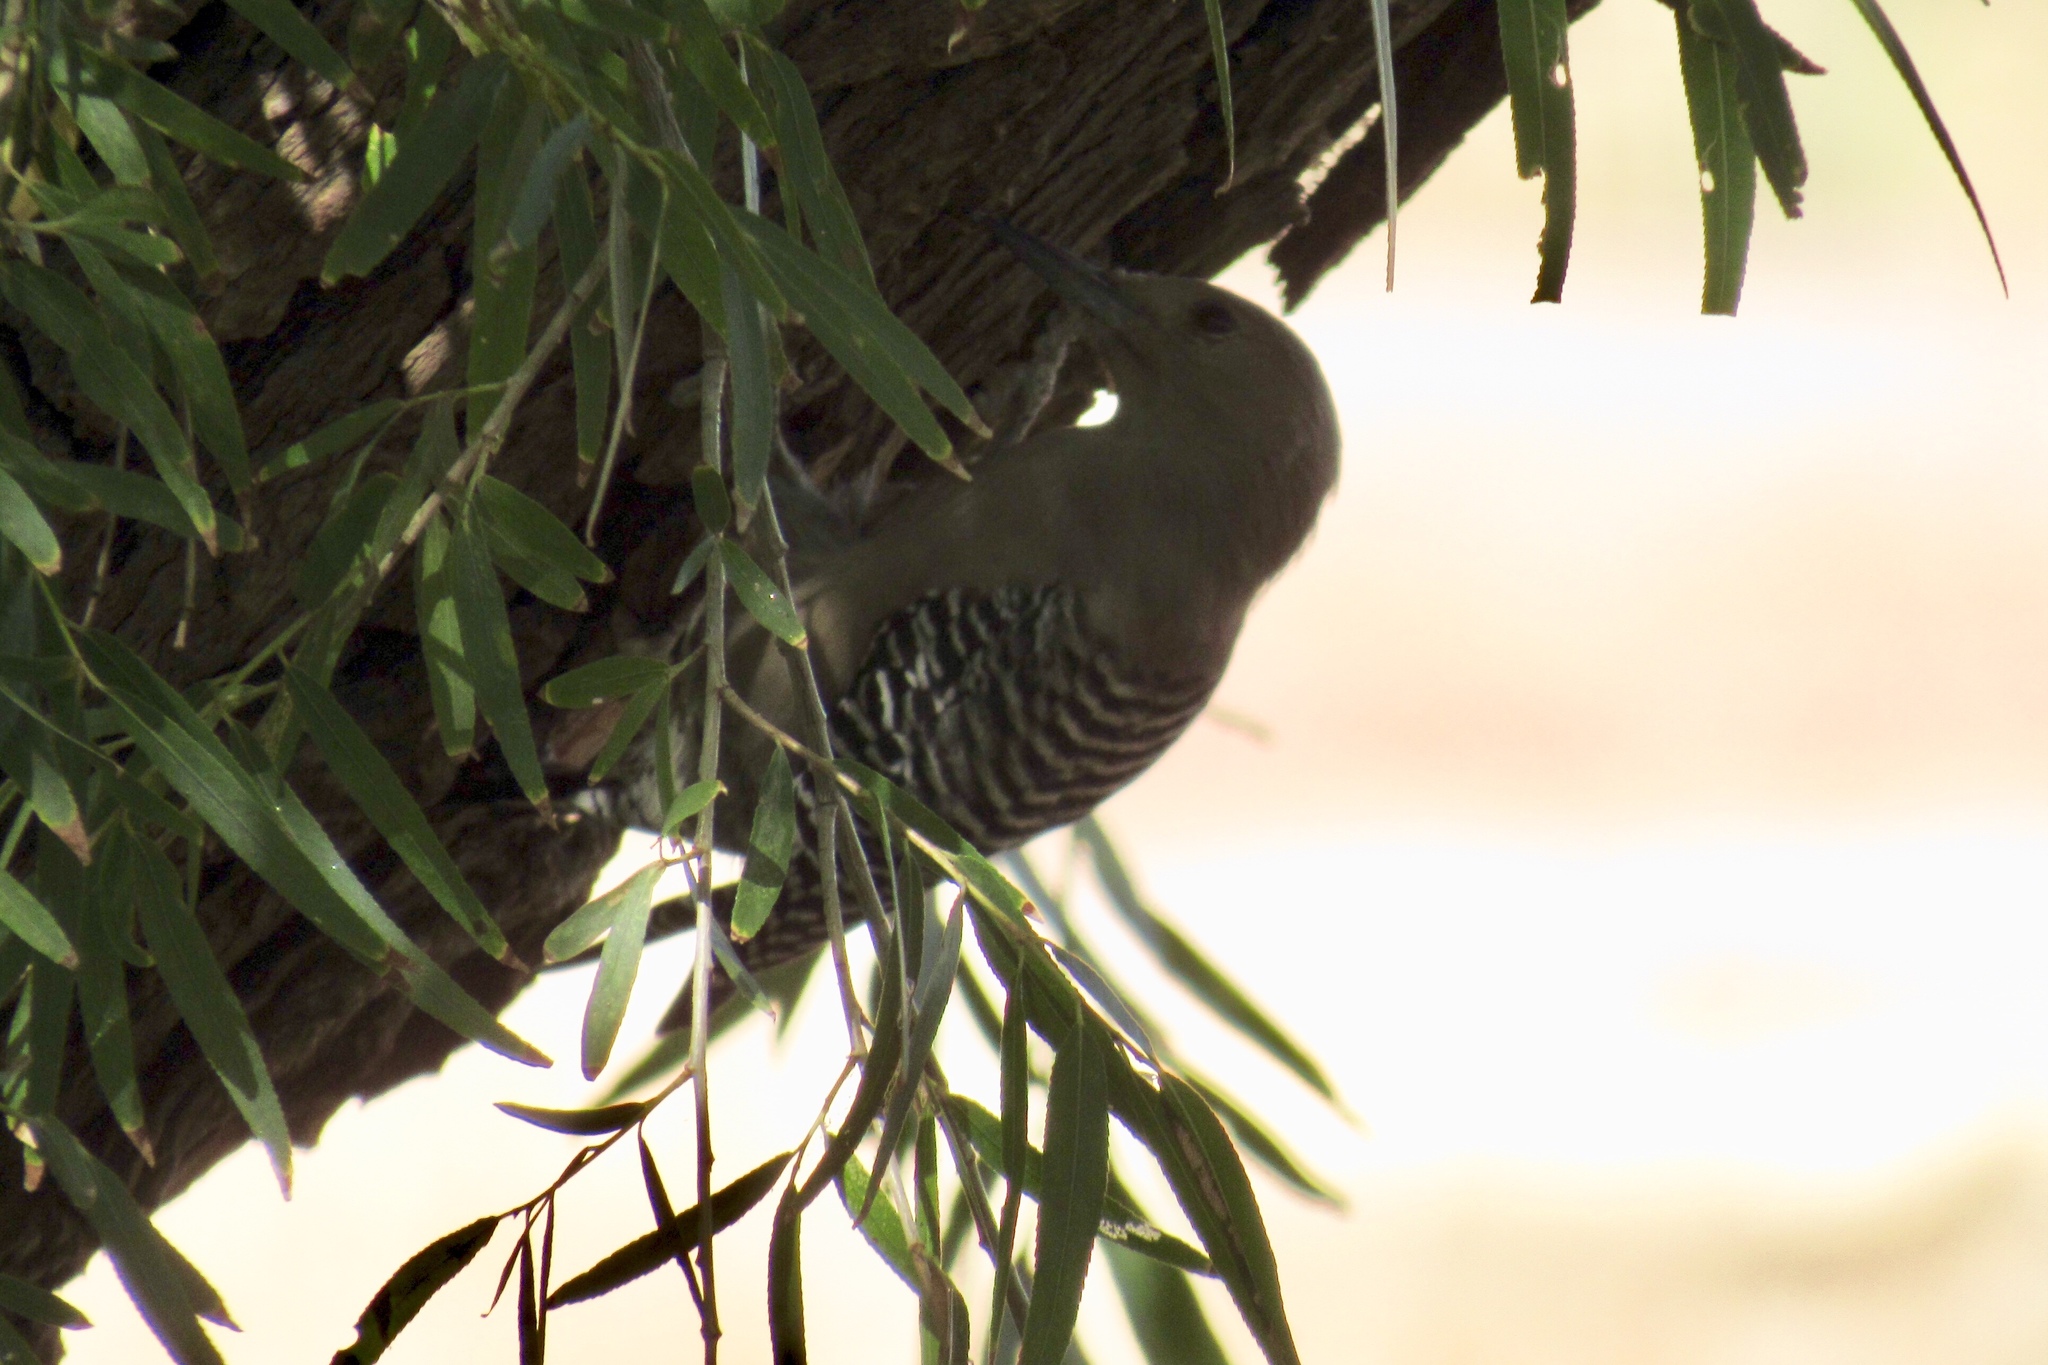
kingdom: Animalia
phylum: Chordata
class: Aves
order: Piciformes
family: Picidae
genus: Melanerpes
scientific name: Melanerpes uropygialis
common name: Gila woodpecker
